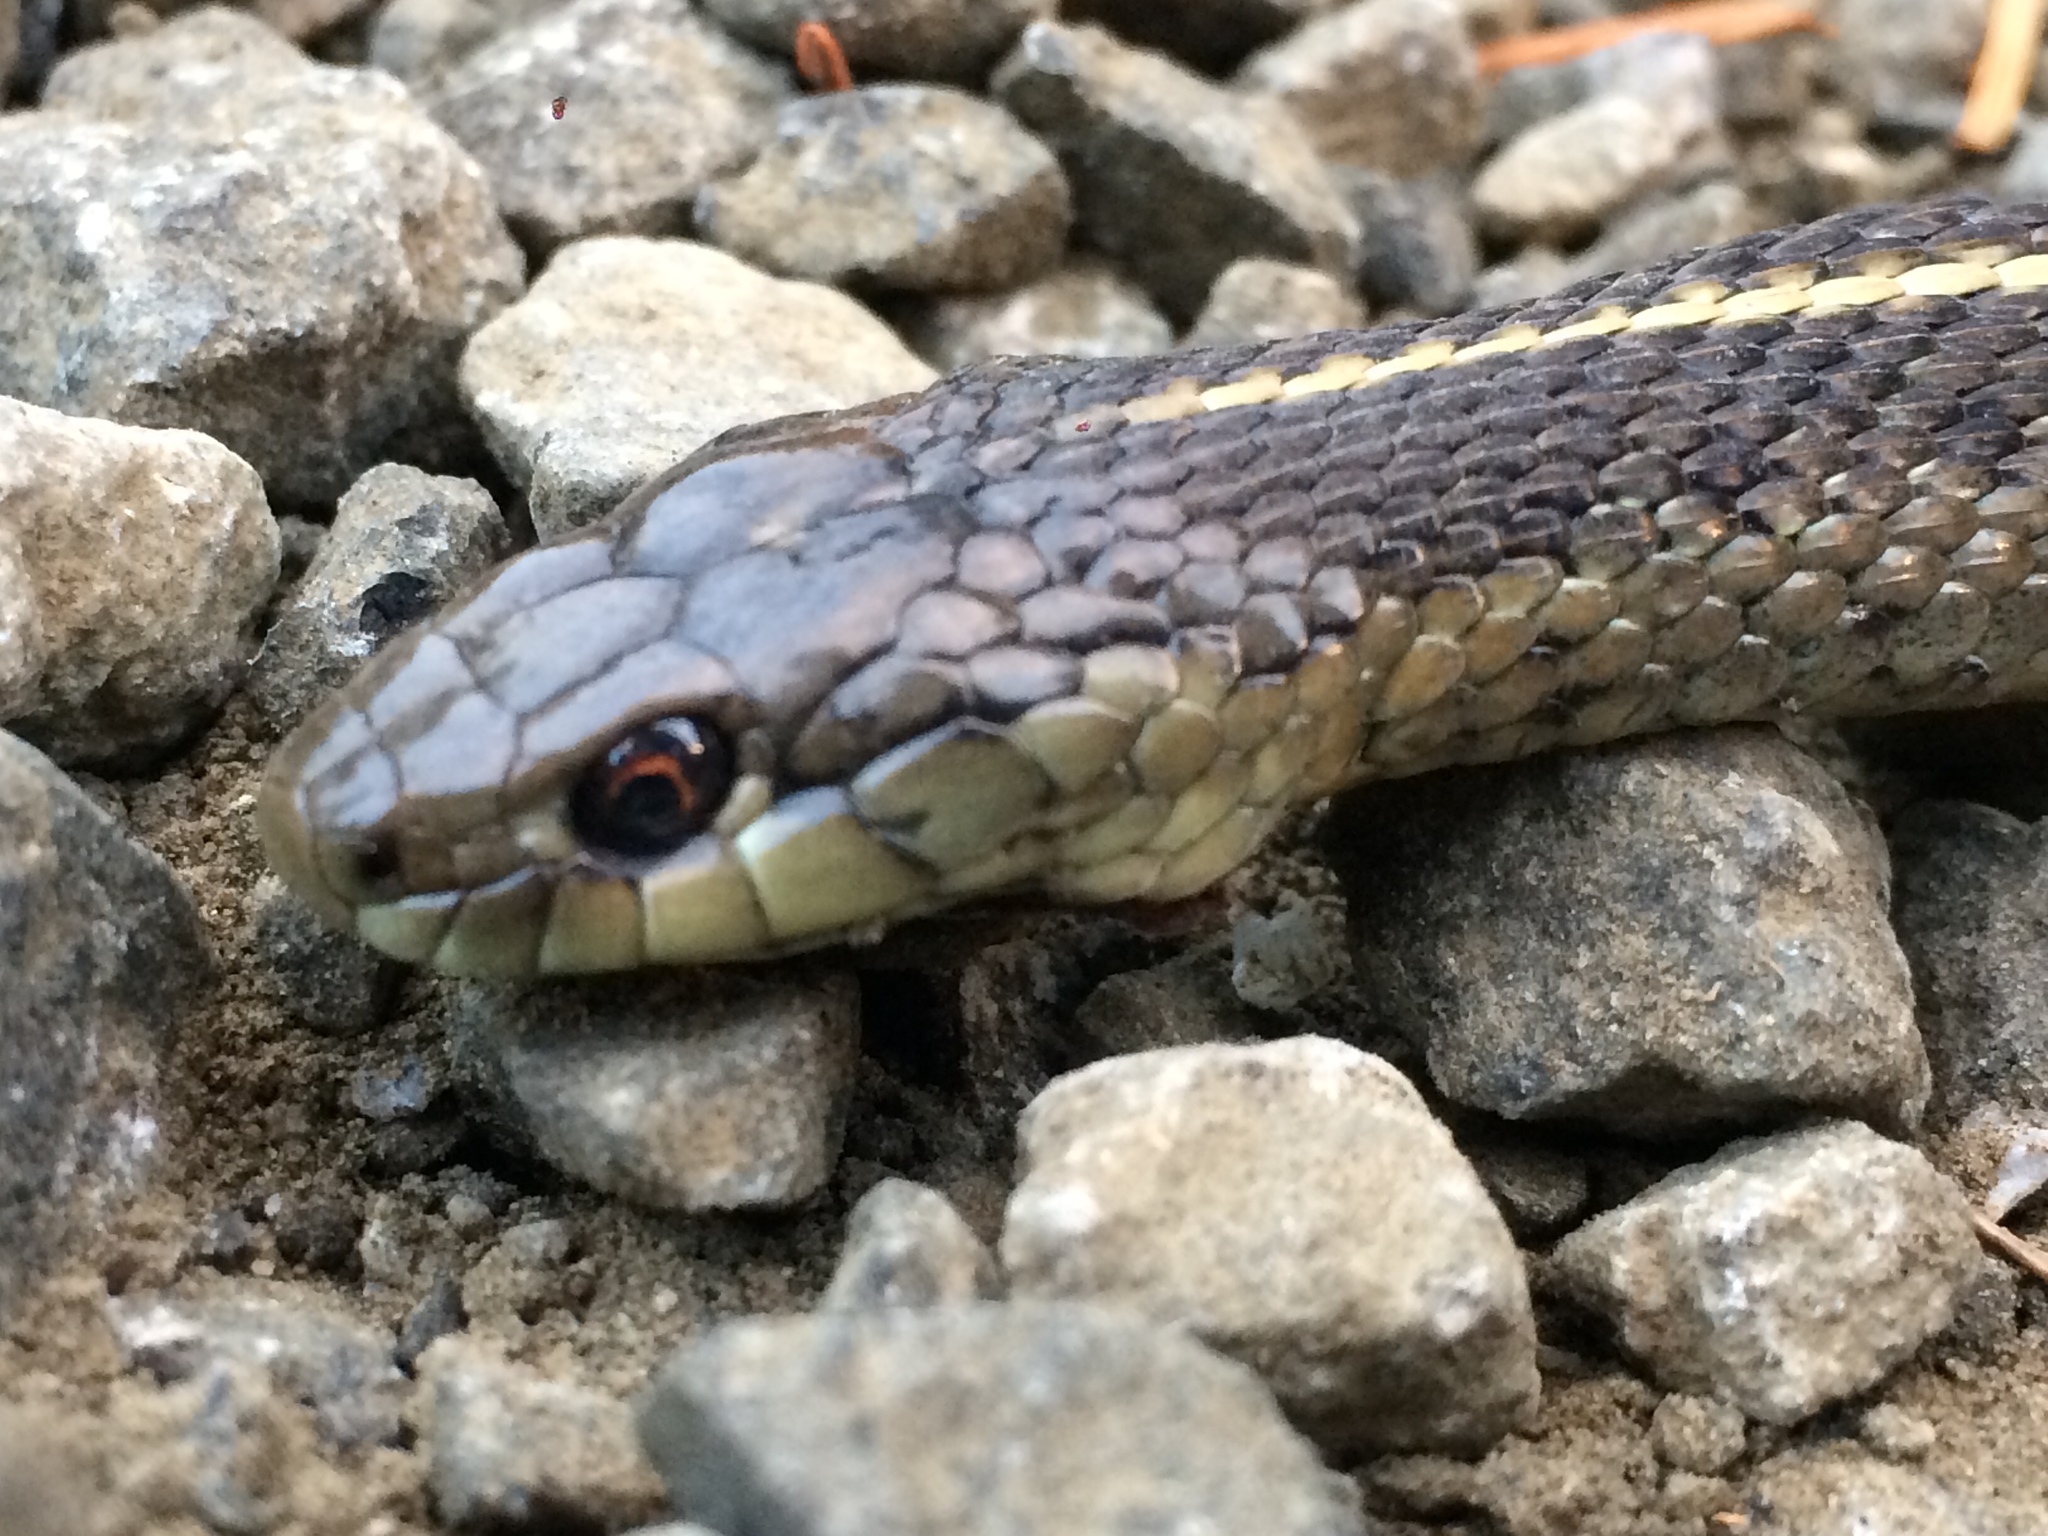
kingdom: Animalia
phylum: Chordata
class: Squamata
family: Colubridae
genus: Thamnophis
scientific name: Thamnophis ordinoides
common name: Northwestern garter snake
